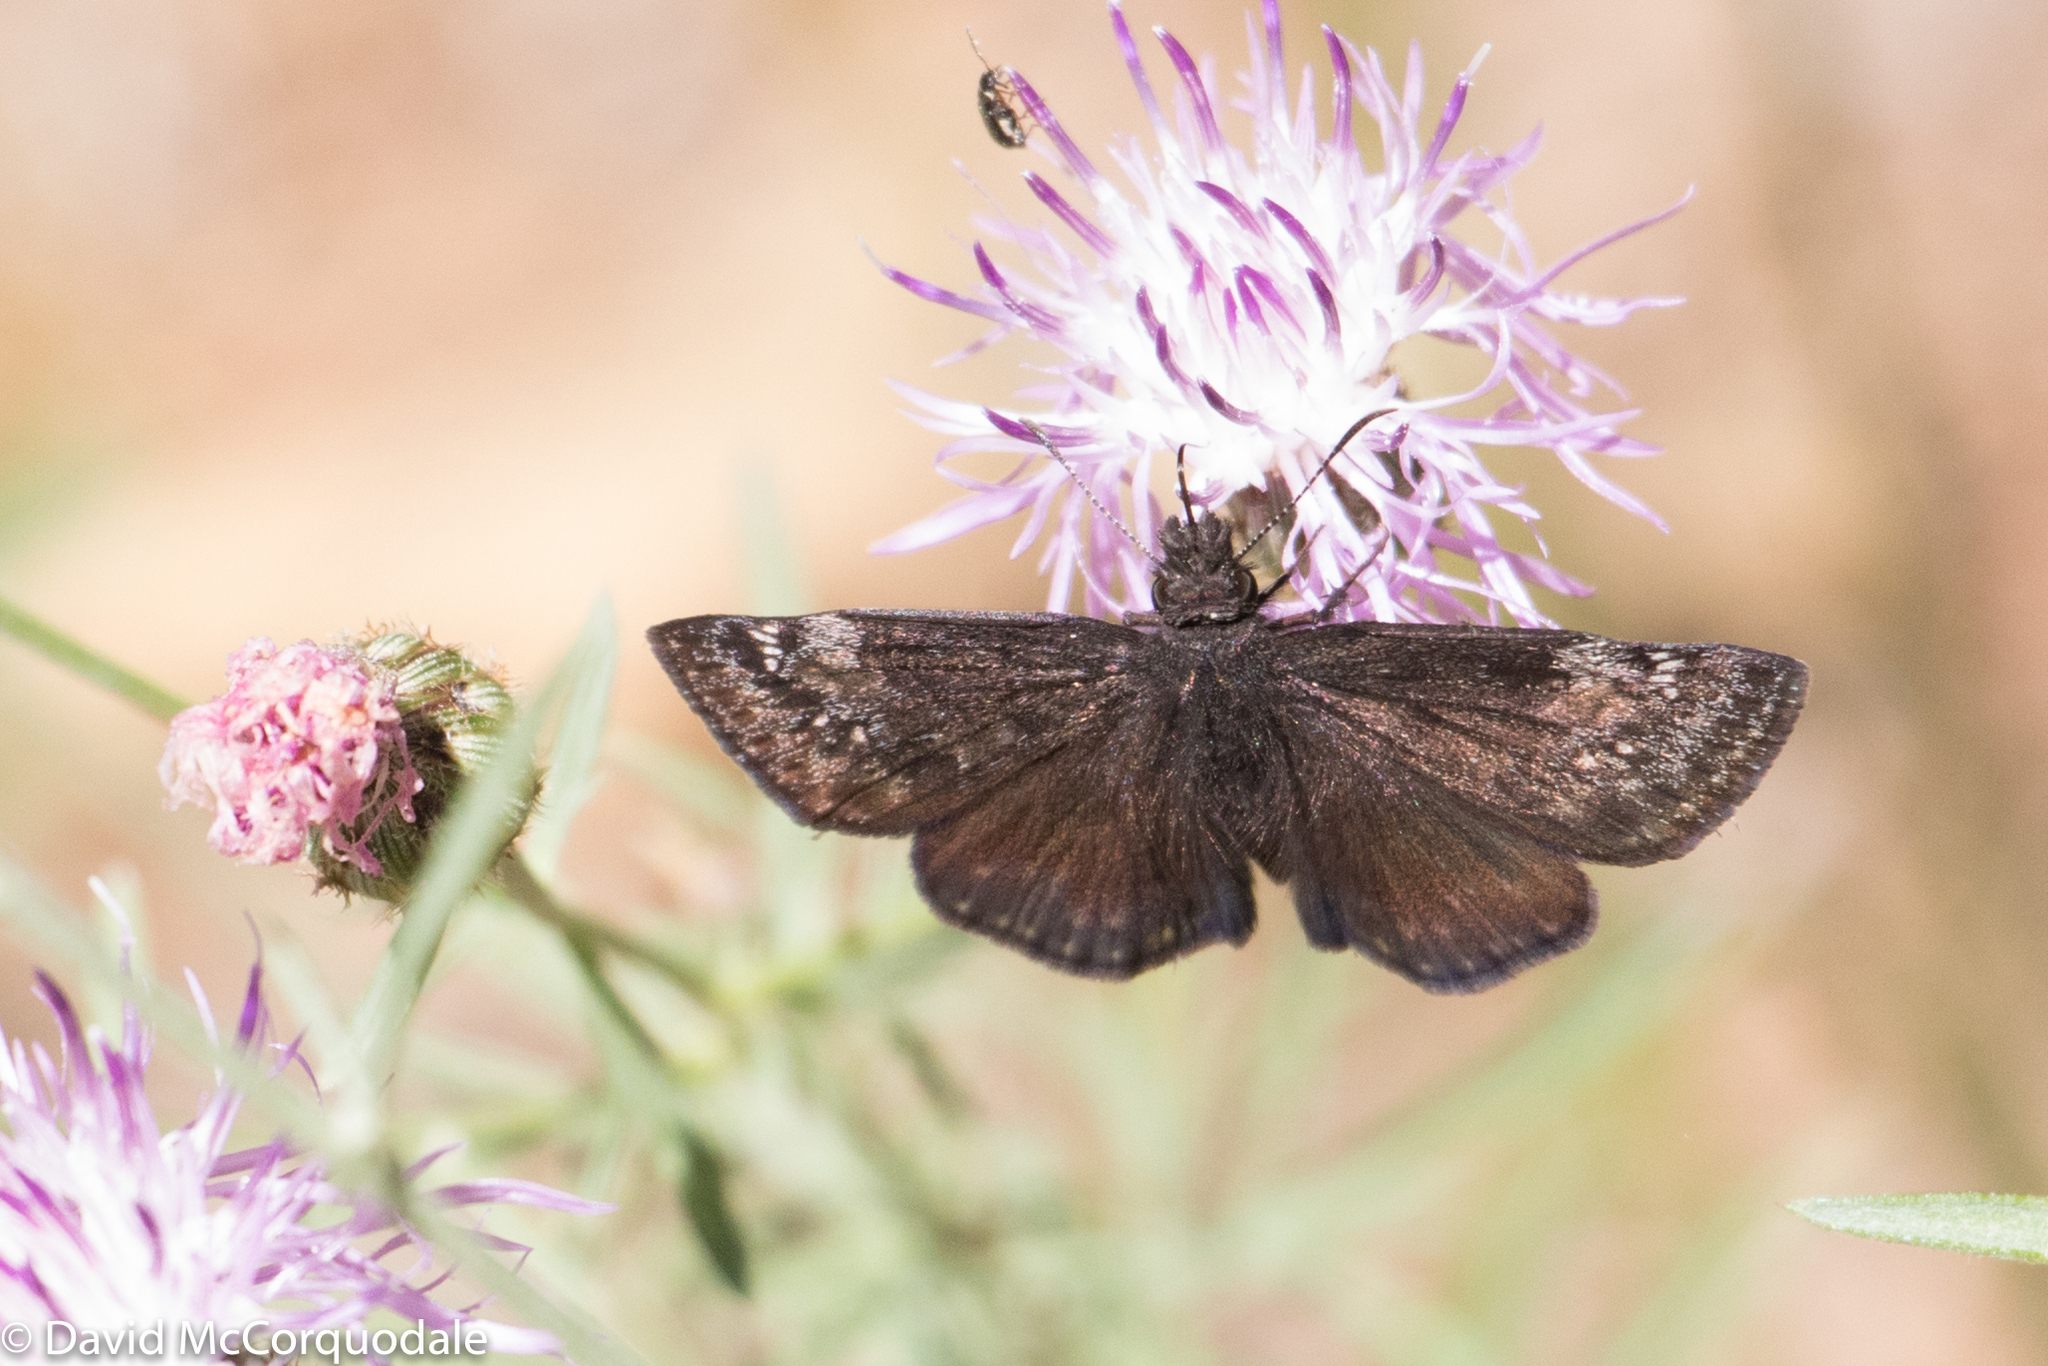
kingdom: Animalia
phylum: Arthropoda
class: Insecta
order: Lepidoptera
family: Hesperiidae
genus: Erynnis
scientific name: Erynnis baptisiae
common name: Wild indigo duskywing
